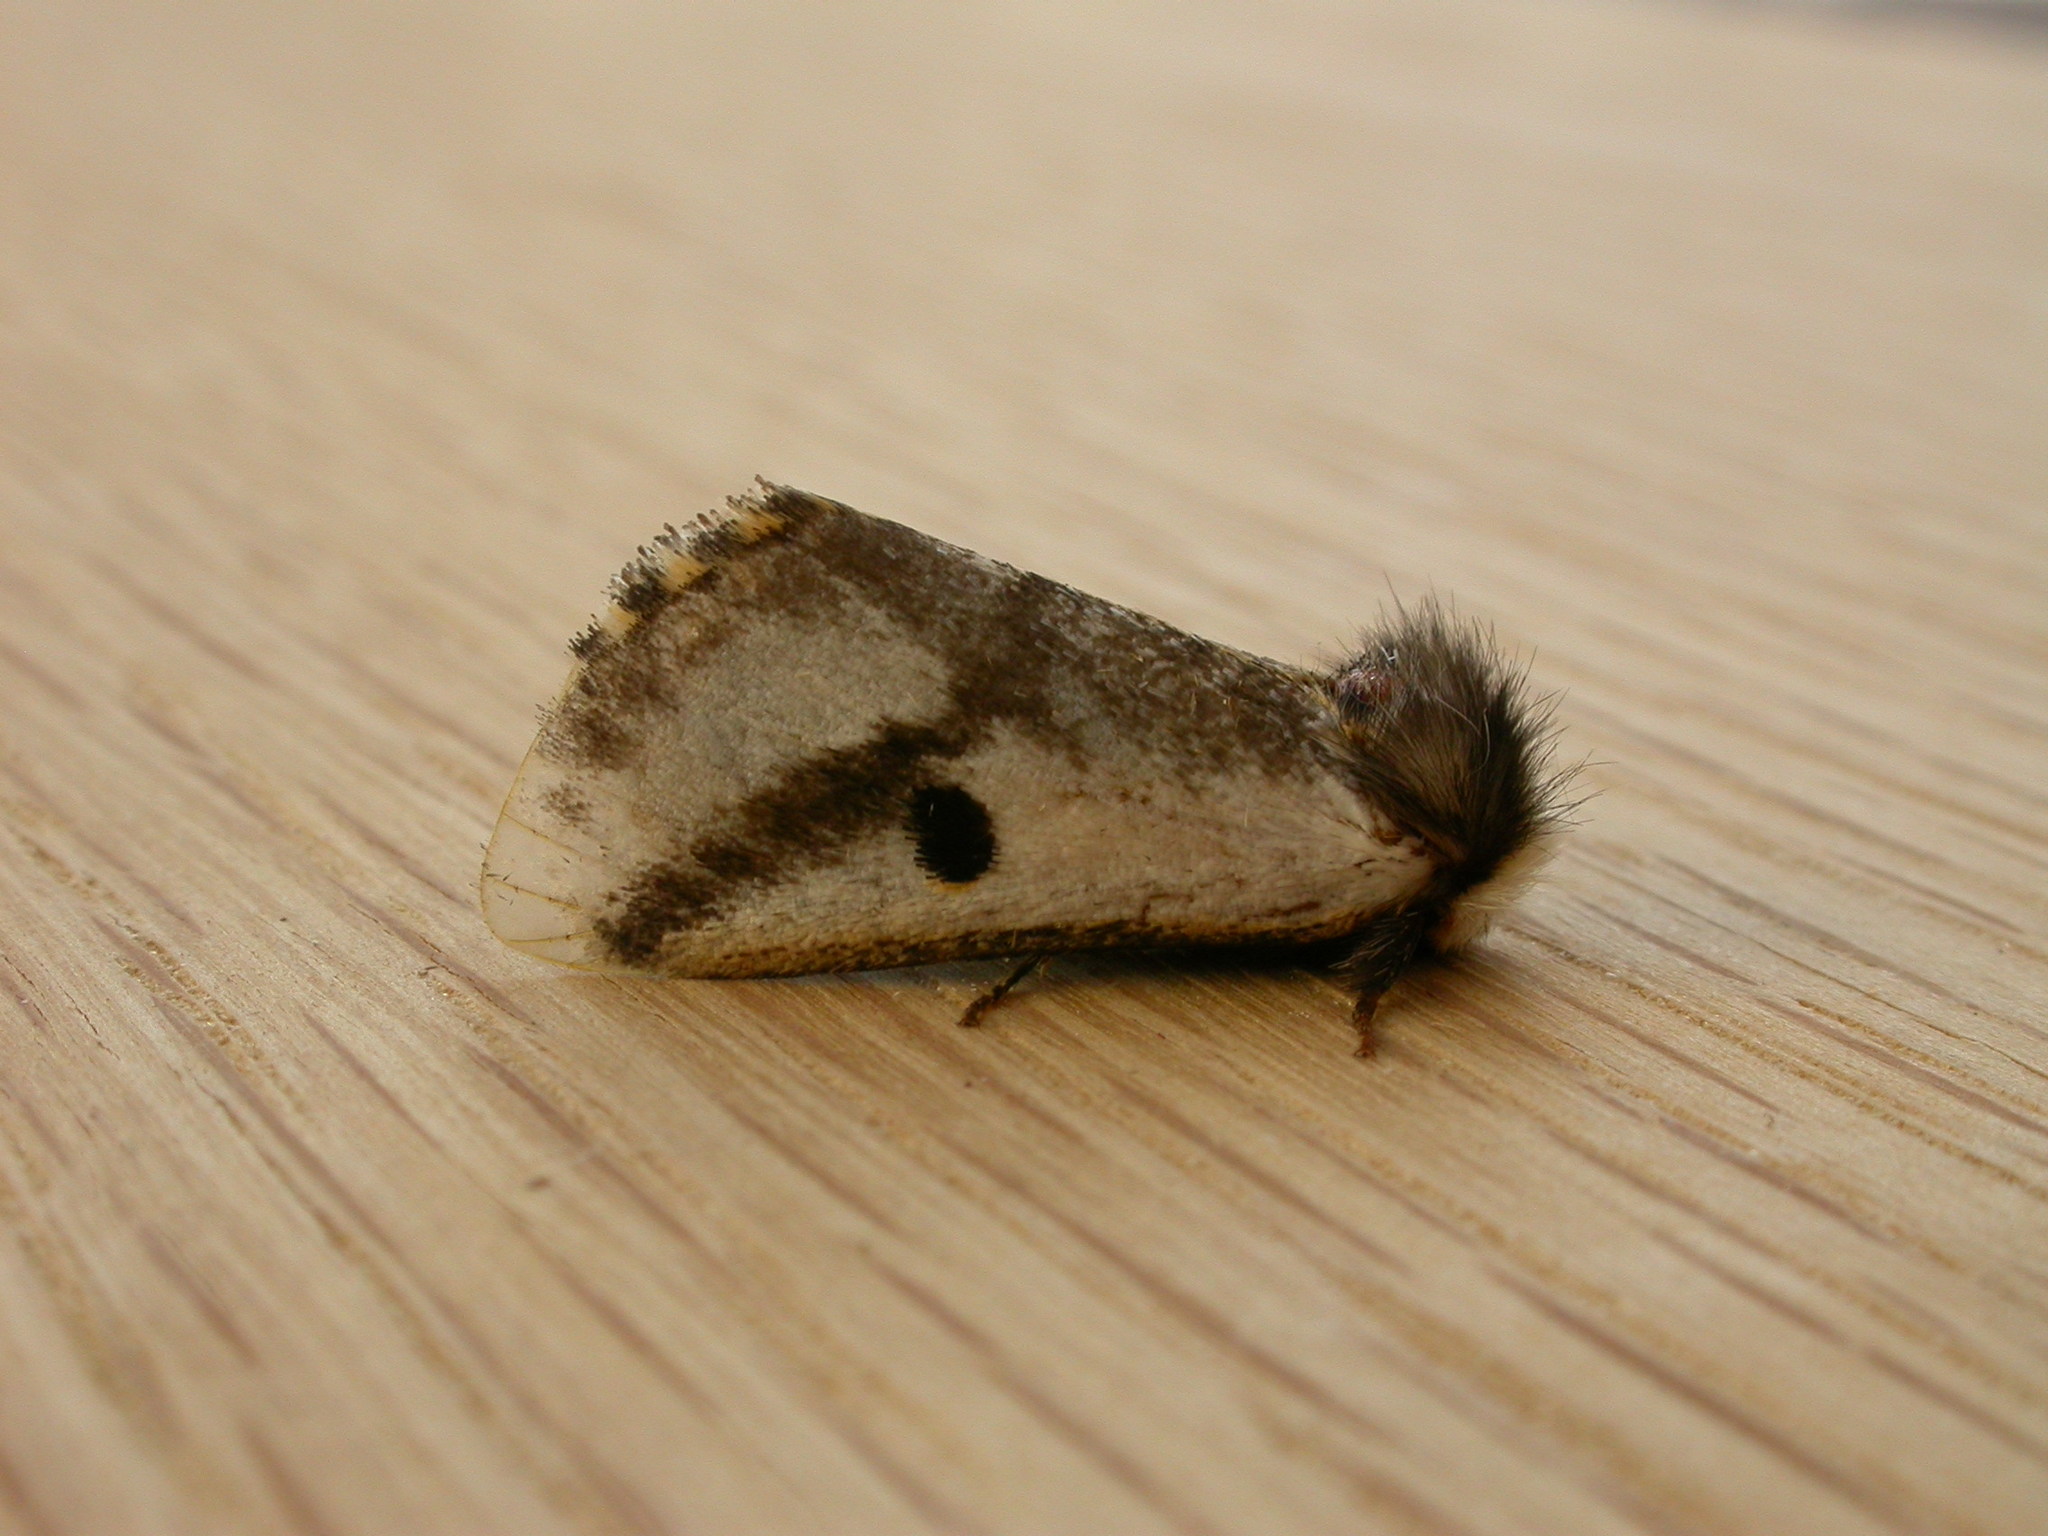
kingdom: Animalia
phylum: Arthropoda
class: Insecta
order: Lepidoptera
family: Notodontidae
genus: Epicoma
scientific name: Epicoma melanospila
